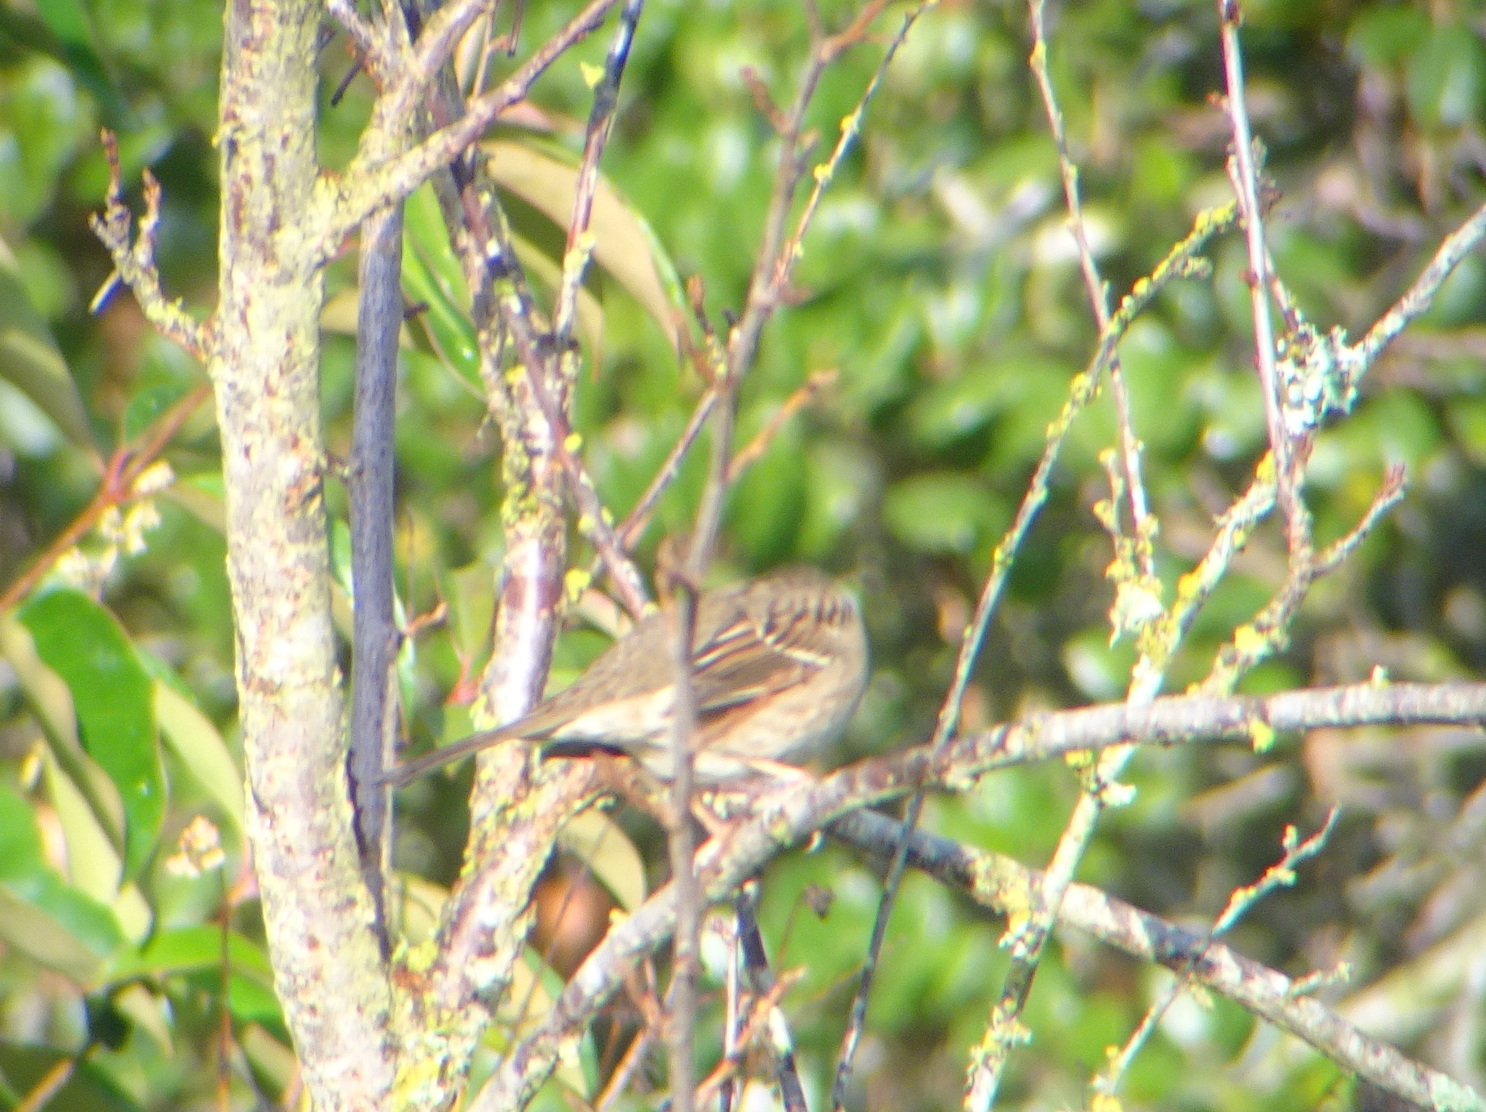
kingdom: Animalia
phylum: Chordata
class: Aves
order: Passeriformes
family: Passerellidae
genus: Zonotrichia
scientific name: Zonotrichia atricapilla
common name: Golden-crowned sparrow
